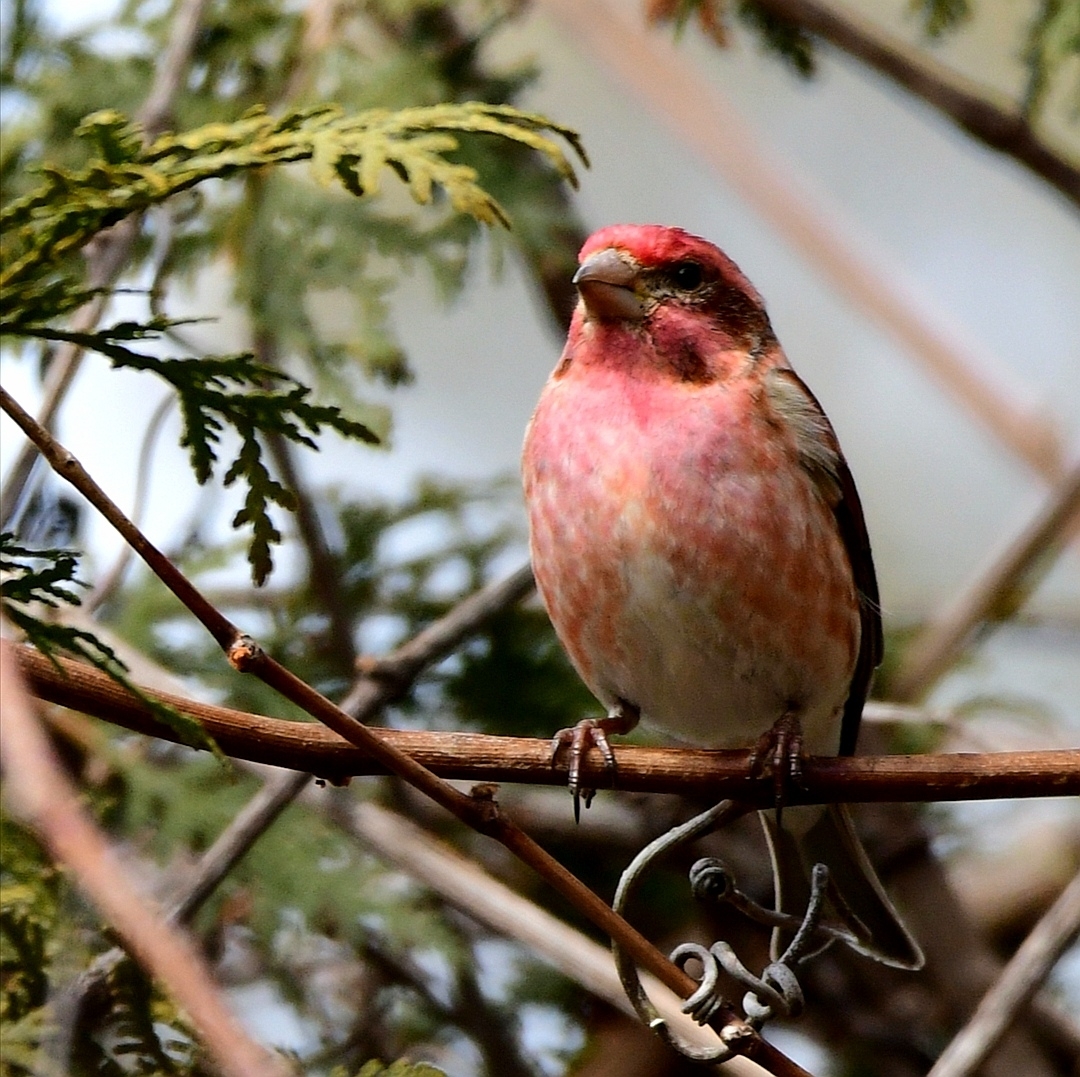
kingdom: Animalia
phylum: Chordata
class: Aves
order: Passeriformes
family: Fringillidae
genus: Haemorhous
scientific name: Haemorhous purpureus
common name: Purple finch
